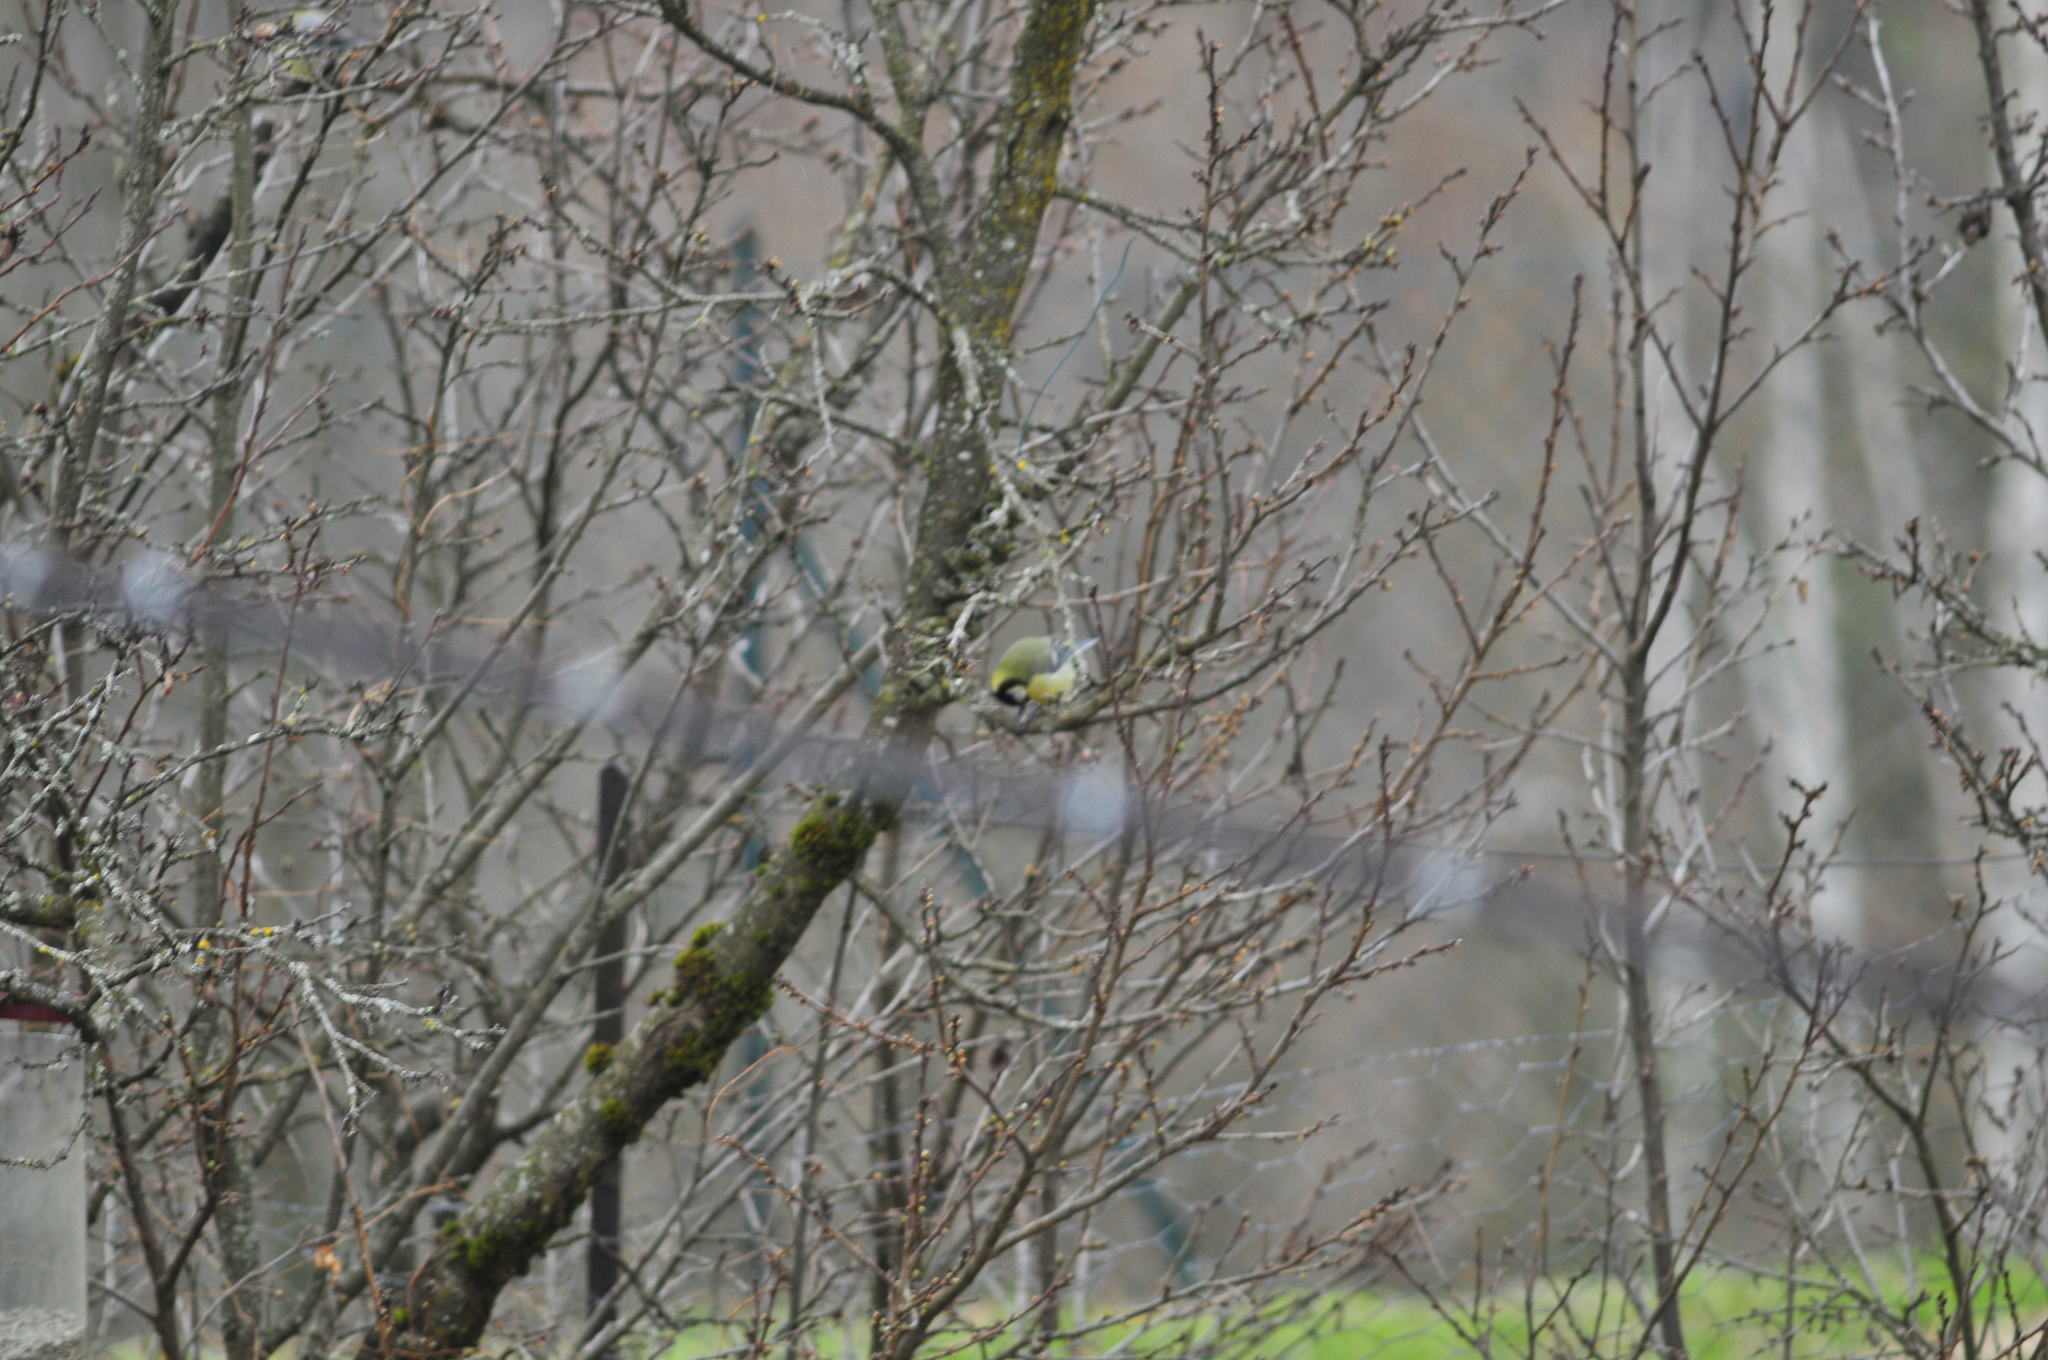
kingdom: Animalia
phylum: Chordata
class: Aves
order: Passeriformes
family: Paridae
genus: Parus
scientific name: Parus major
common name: Great tit
